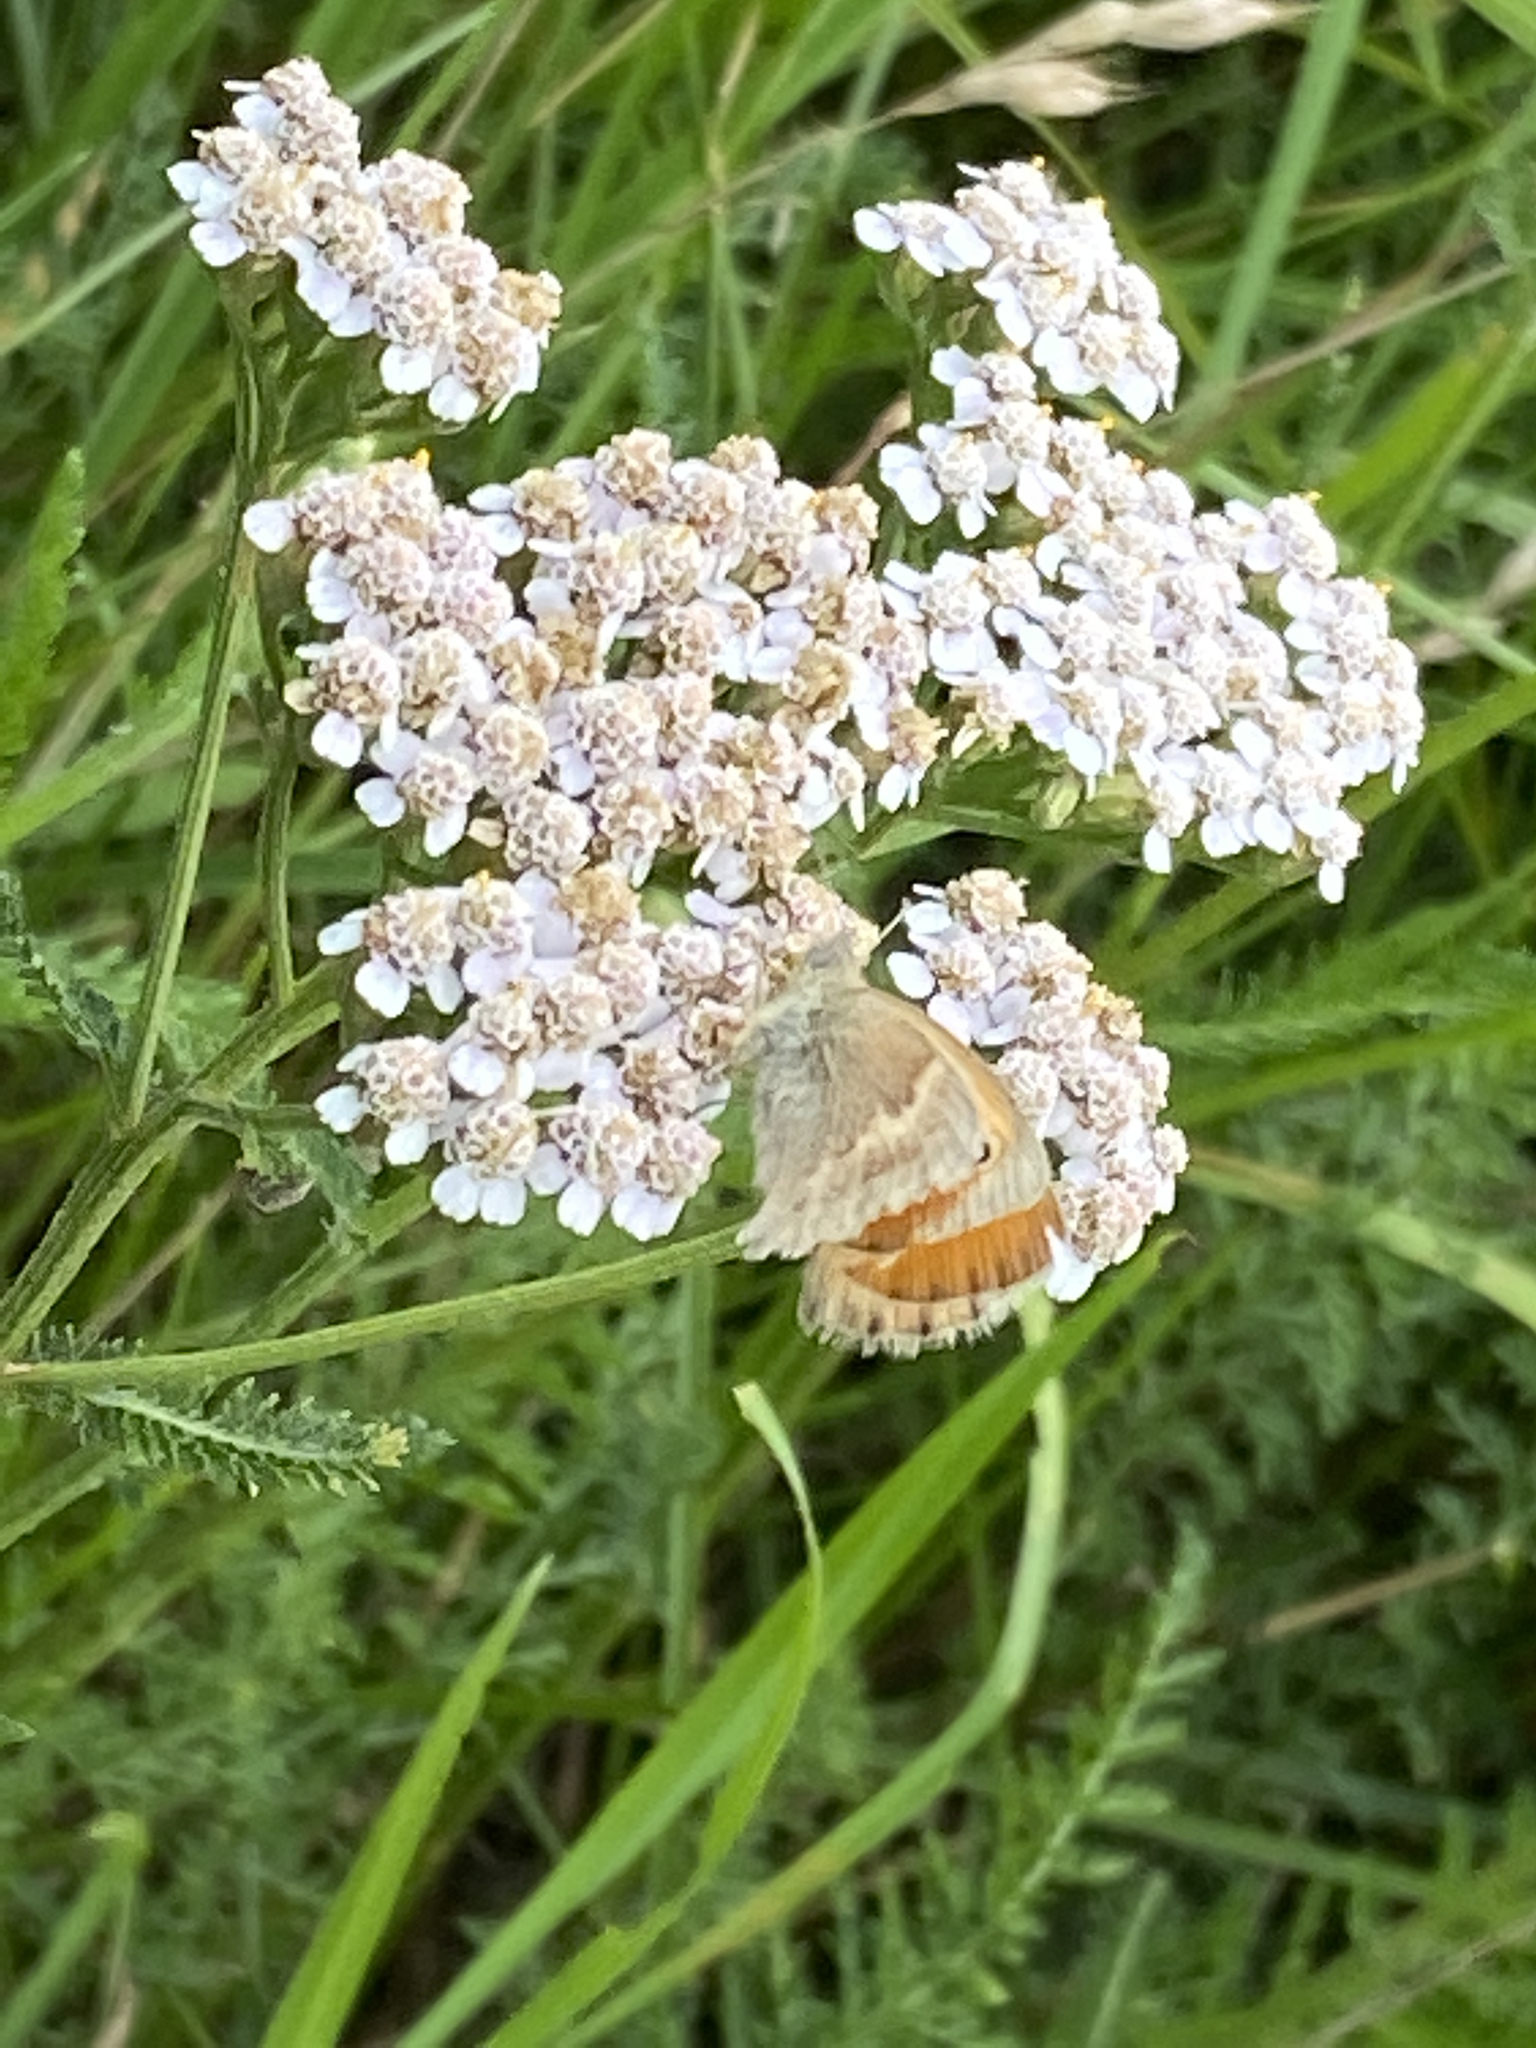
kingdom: Animalia
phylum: Arthropoda
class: Insecta
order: Lepidoptera
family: Nymphalidae
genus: Coenonympha
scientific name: Coenonympha pamphilus
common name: Small heath
